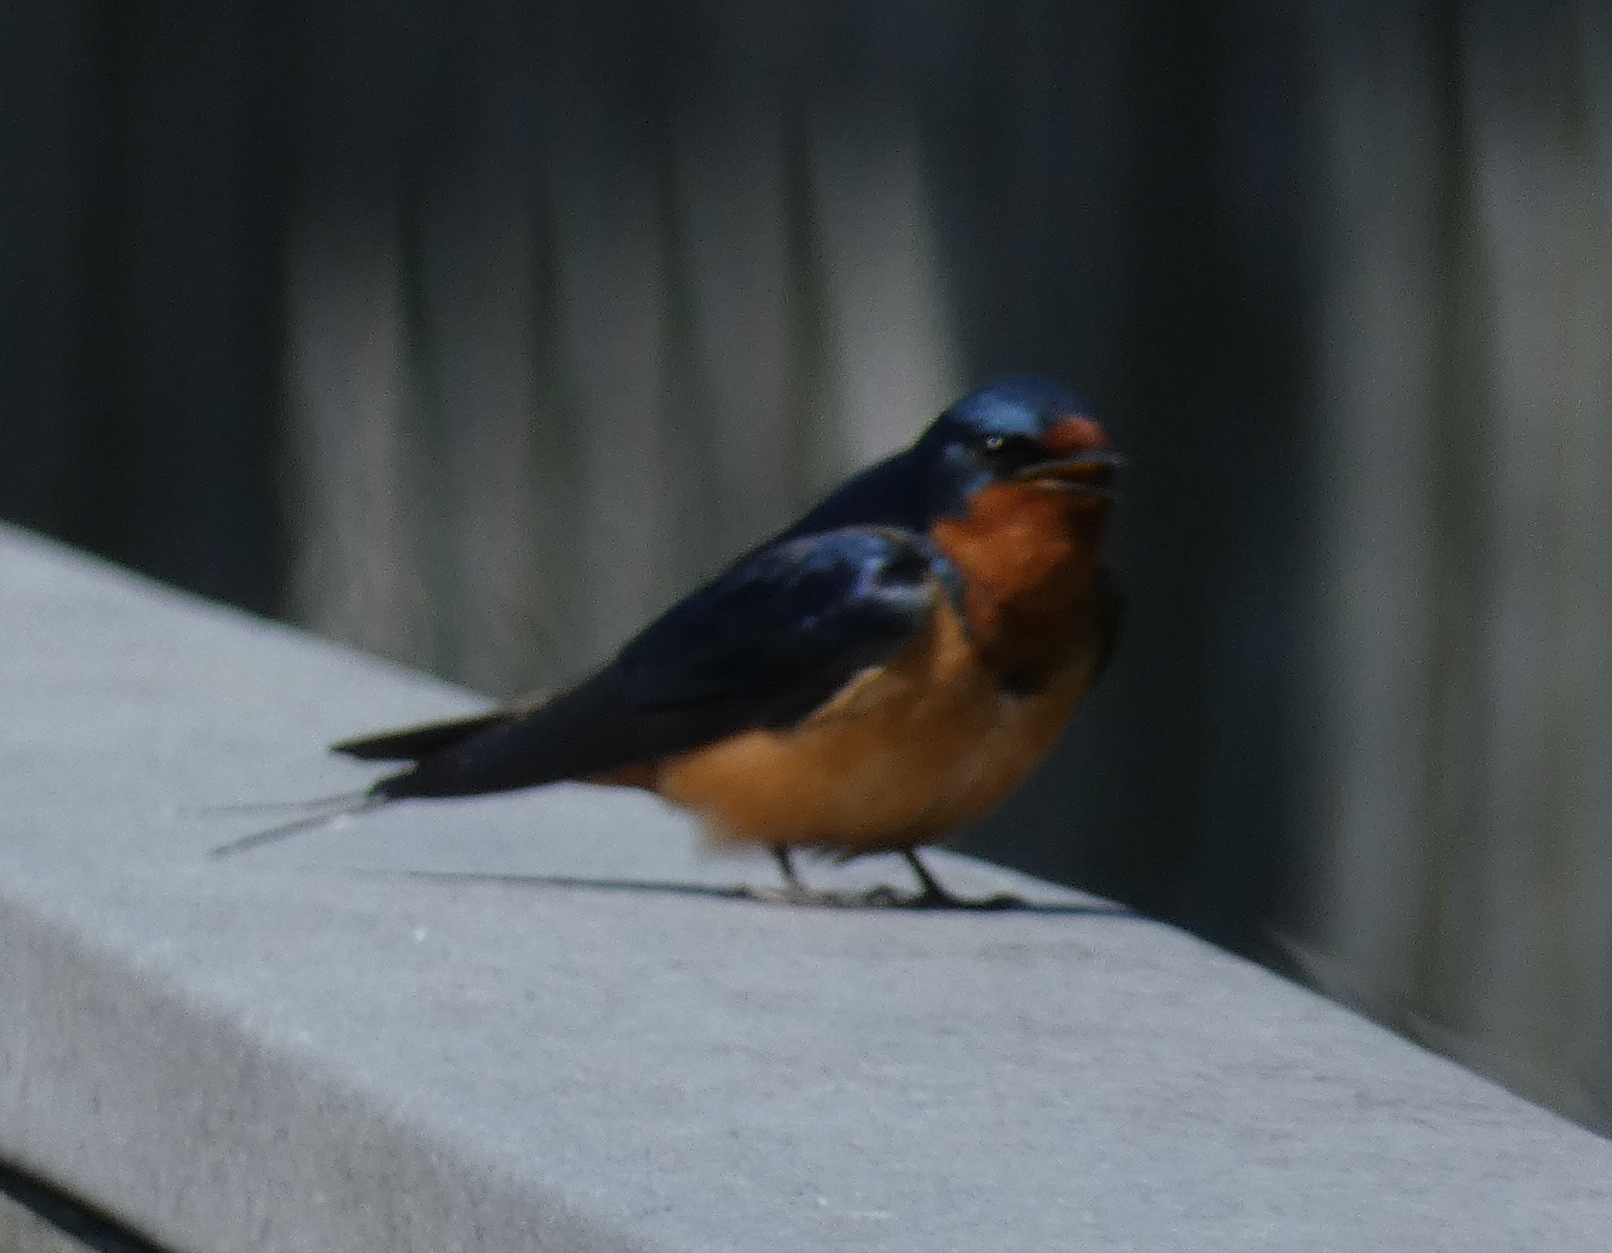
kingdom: Animalia
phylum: Chordata
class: Aves
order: Passeriformes
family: Hirundinidae
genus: Hirundo
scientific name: Hirundo rustica
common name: Barn swallow
